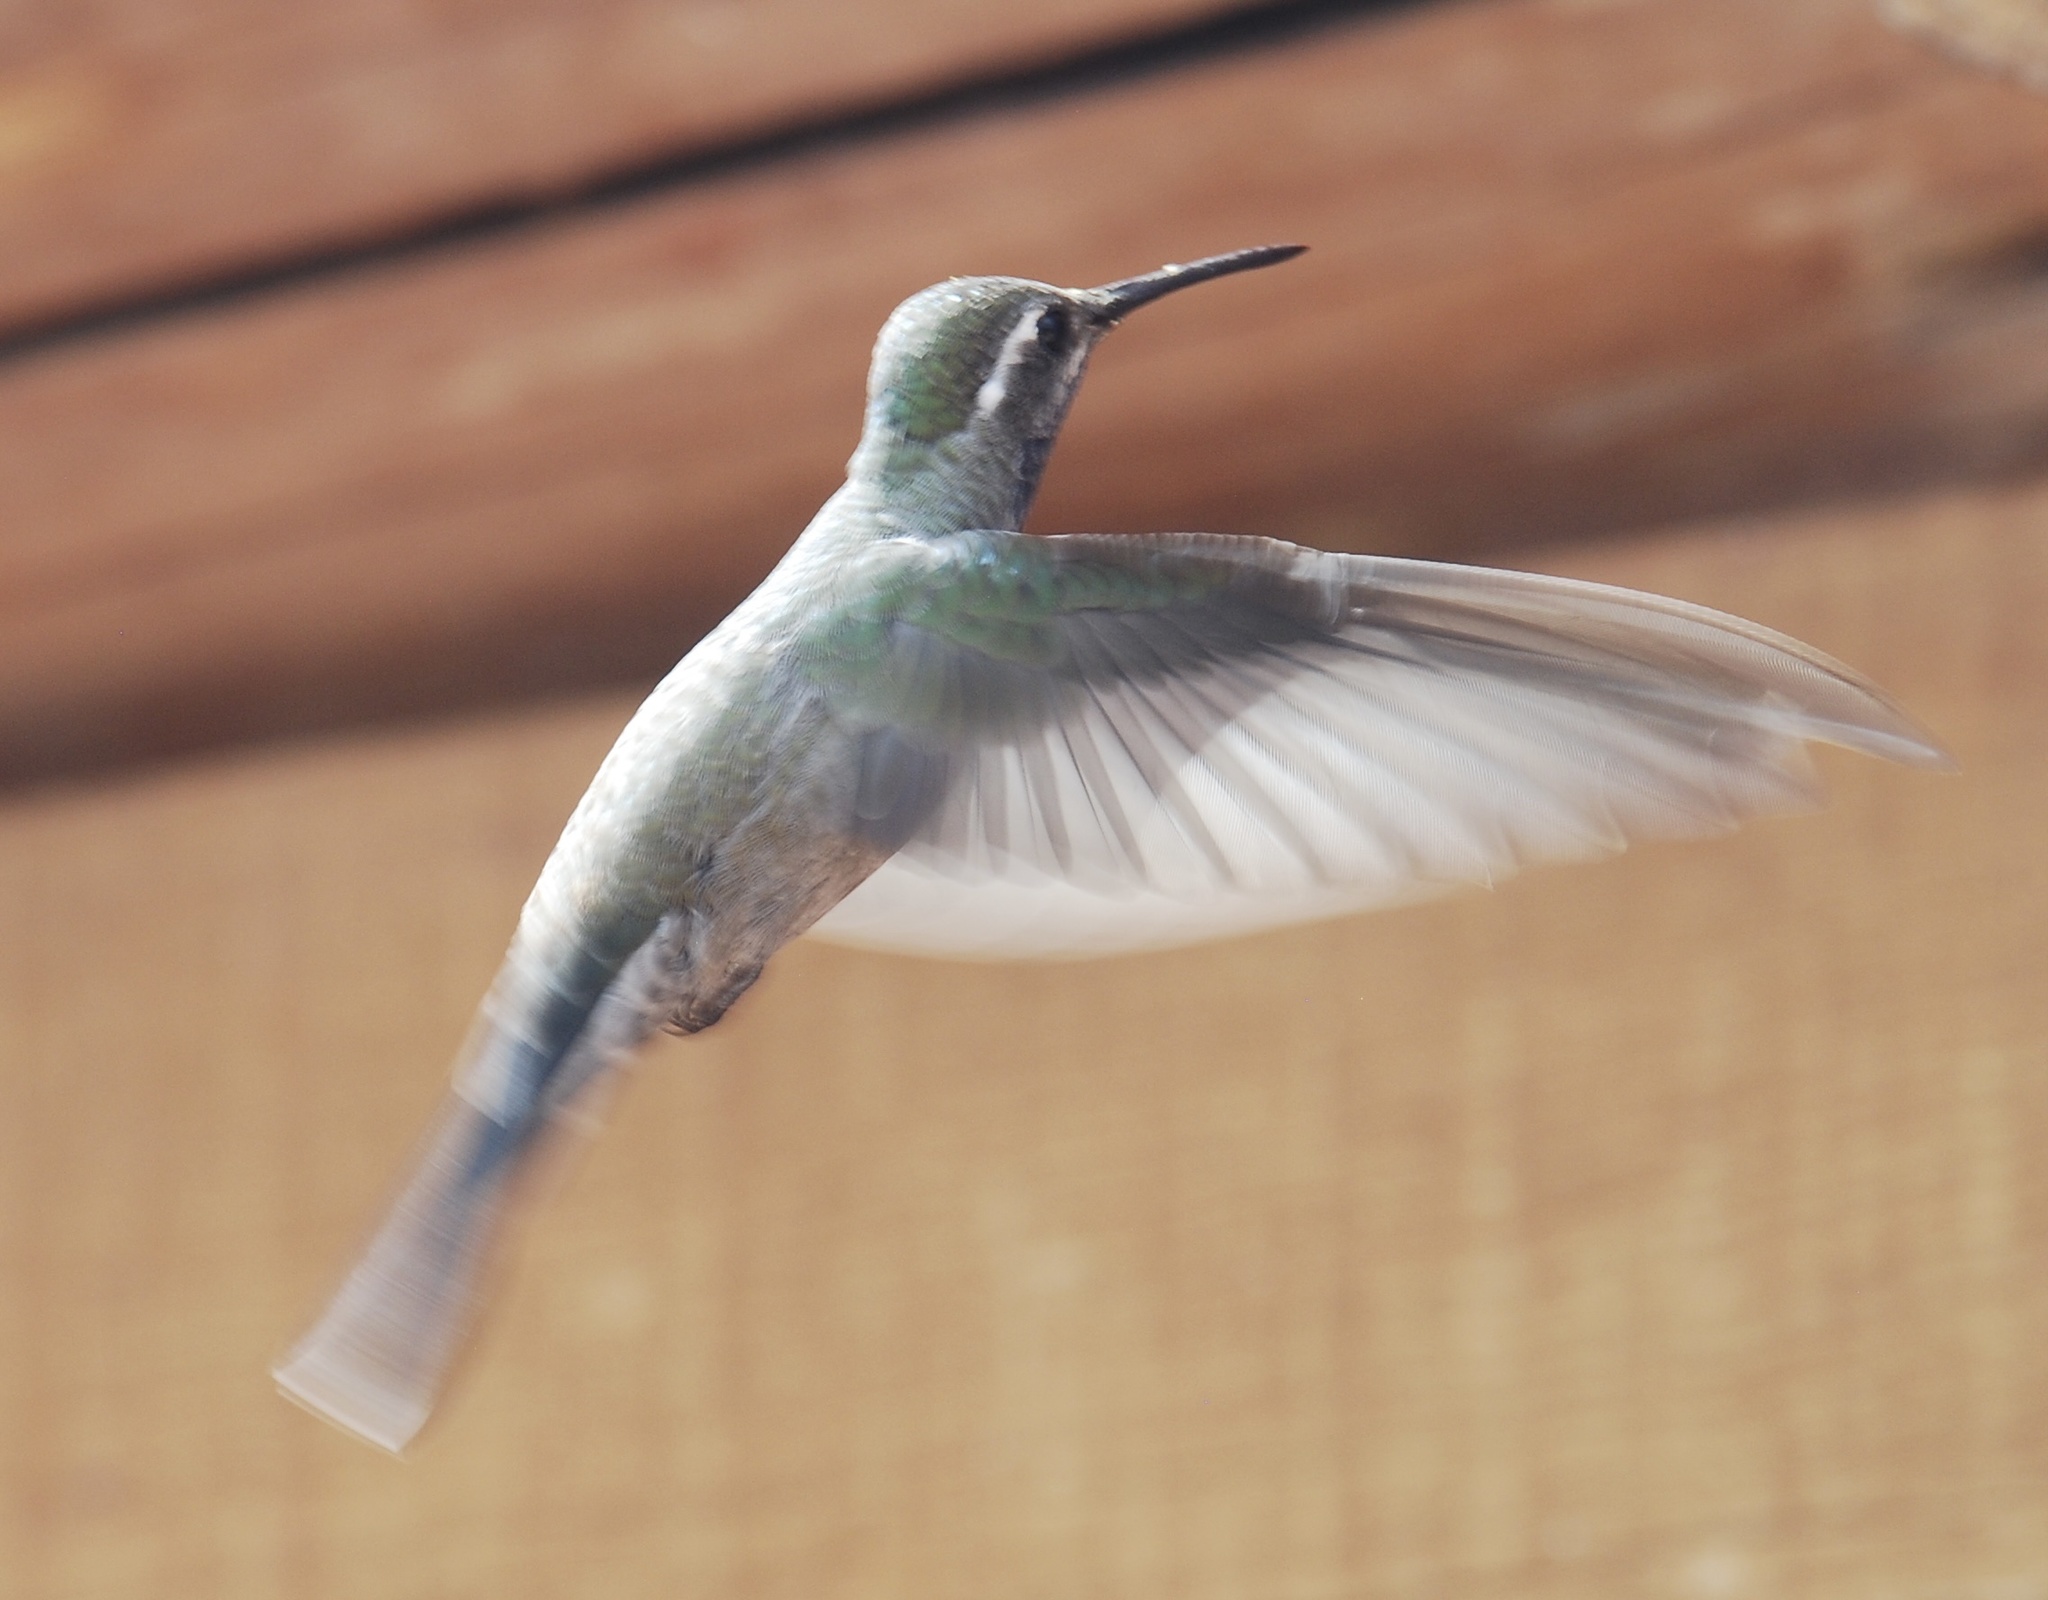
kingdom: Animalia
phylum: Chordata
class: Aves
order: Apodiformes
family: Trochilidae
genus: Lampornis
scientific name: Lampornis clemenciae
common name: Blue-throated mountaingem
